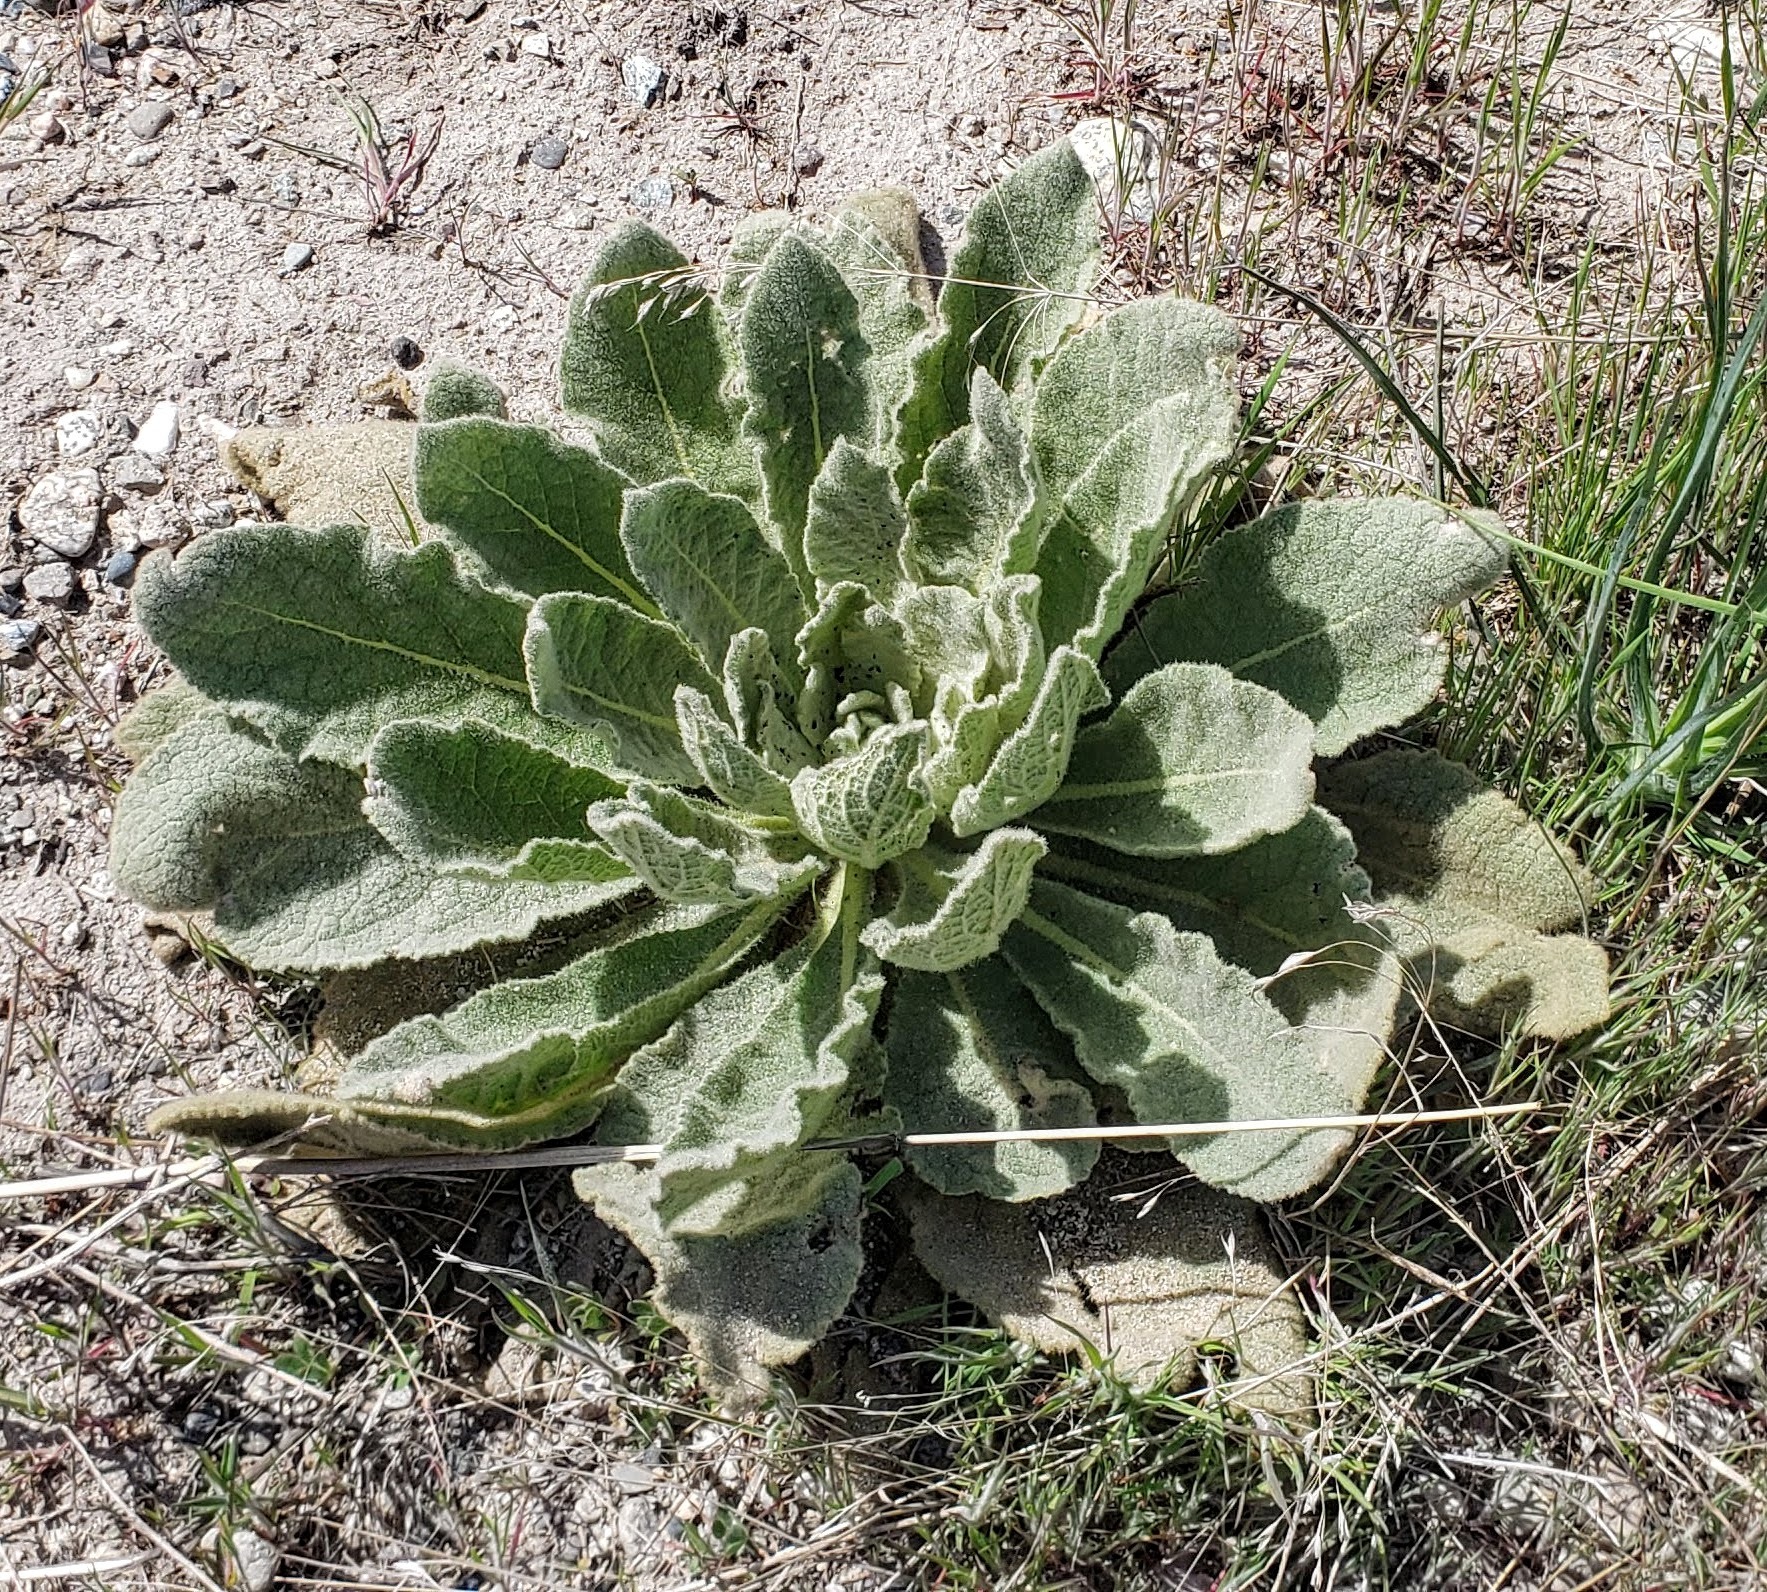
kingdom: Plantae
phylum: Tracheophyta
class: Magnoliopsida
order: Lamiales
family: Scrophulariaceae
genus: Verbascum
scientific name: Verbascum thapsus
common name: Common mullein
